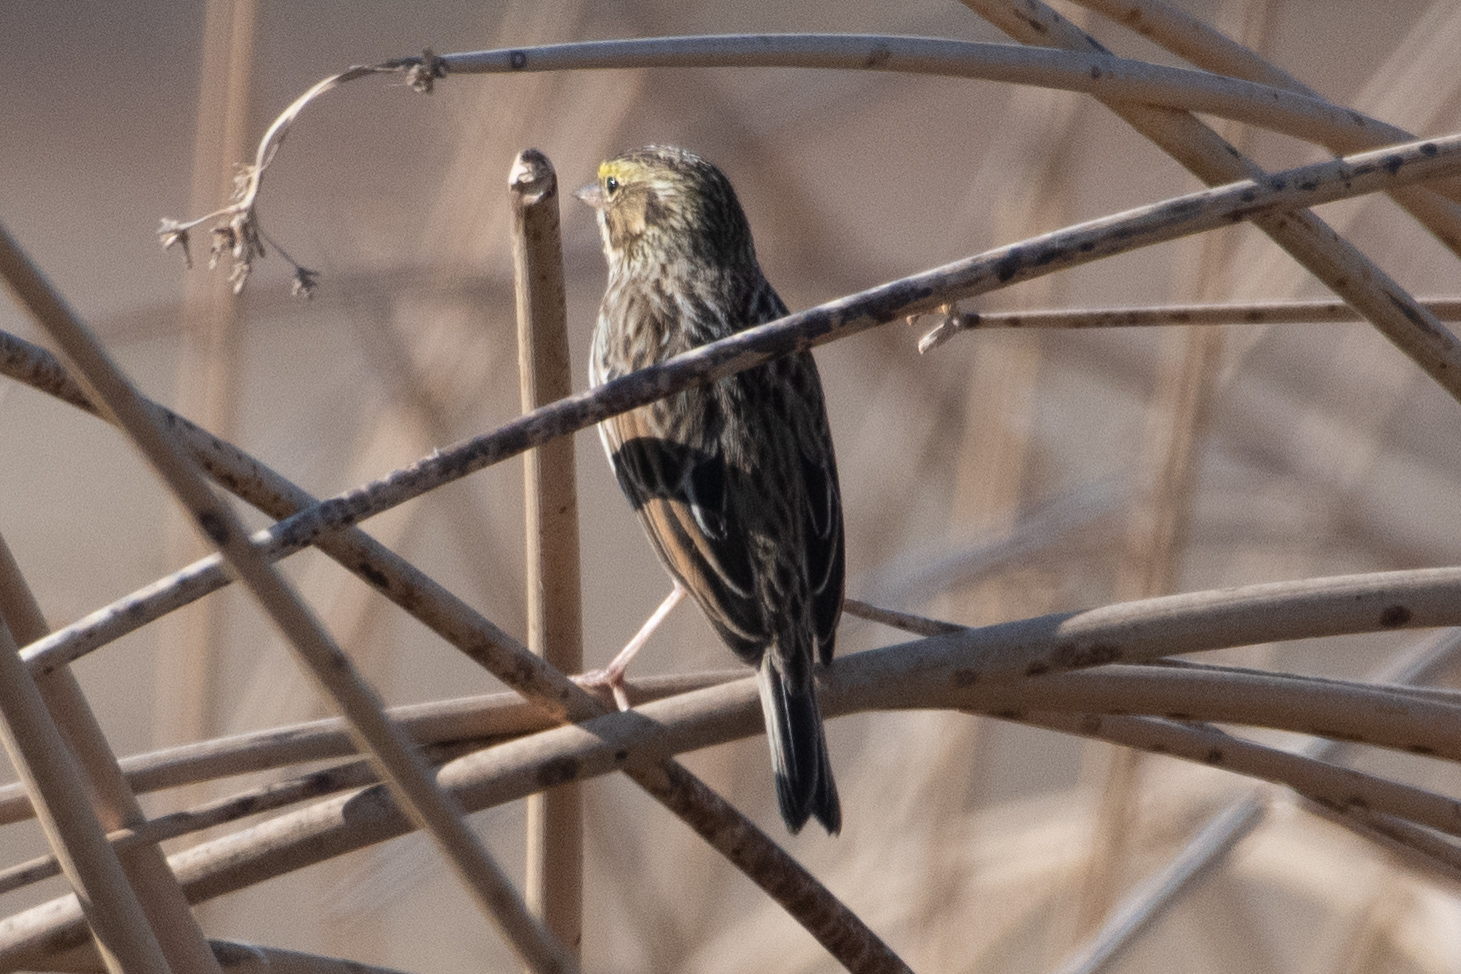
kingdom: Animalia
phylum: Chordata
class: Aves
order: Passeriformes
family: Passerellidae
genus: Passerculus
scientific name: Passerculus sandwichensis
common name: Savannah sparrow
